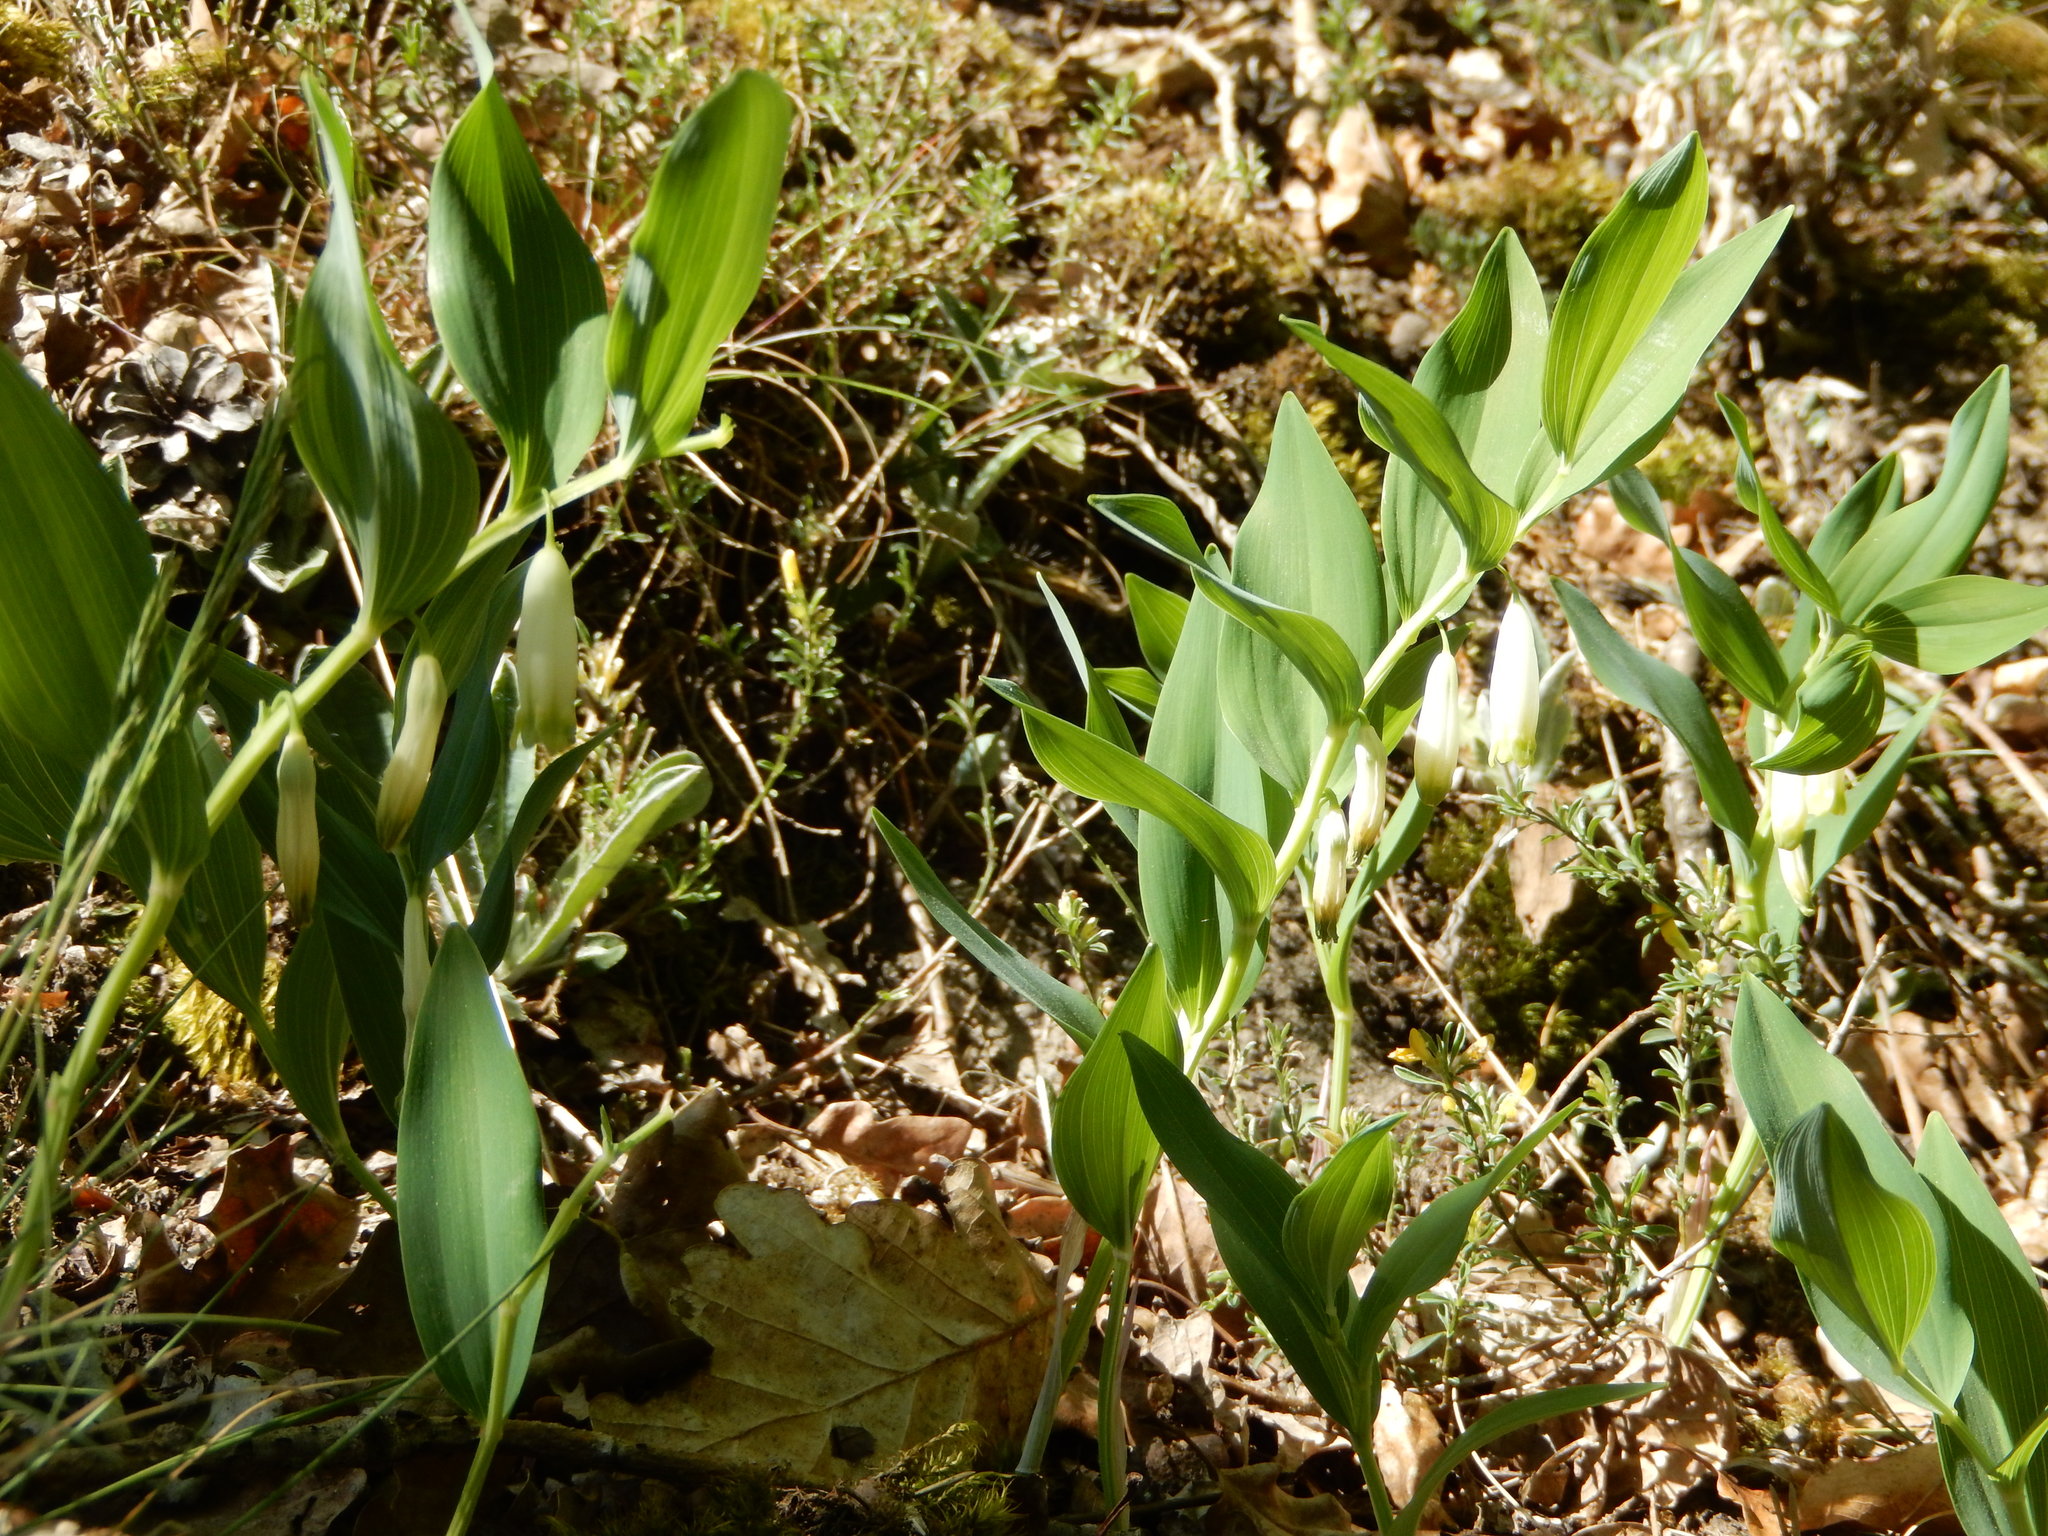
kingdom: Plantae
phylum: Tracheophyta
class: Liliopsida
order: Asparagales
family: Asparagaceae
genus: Polygonatum
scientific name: Polygonatum odoratum
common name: Angular solomon's-seal
